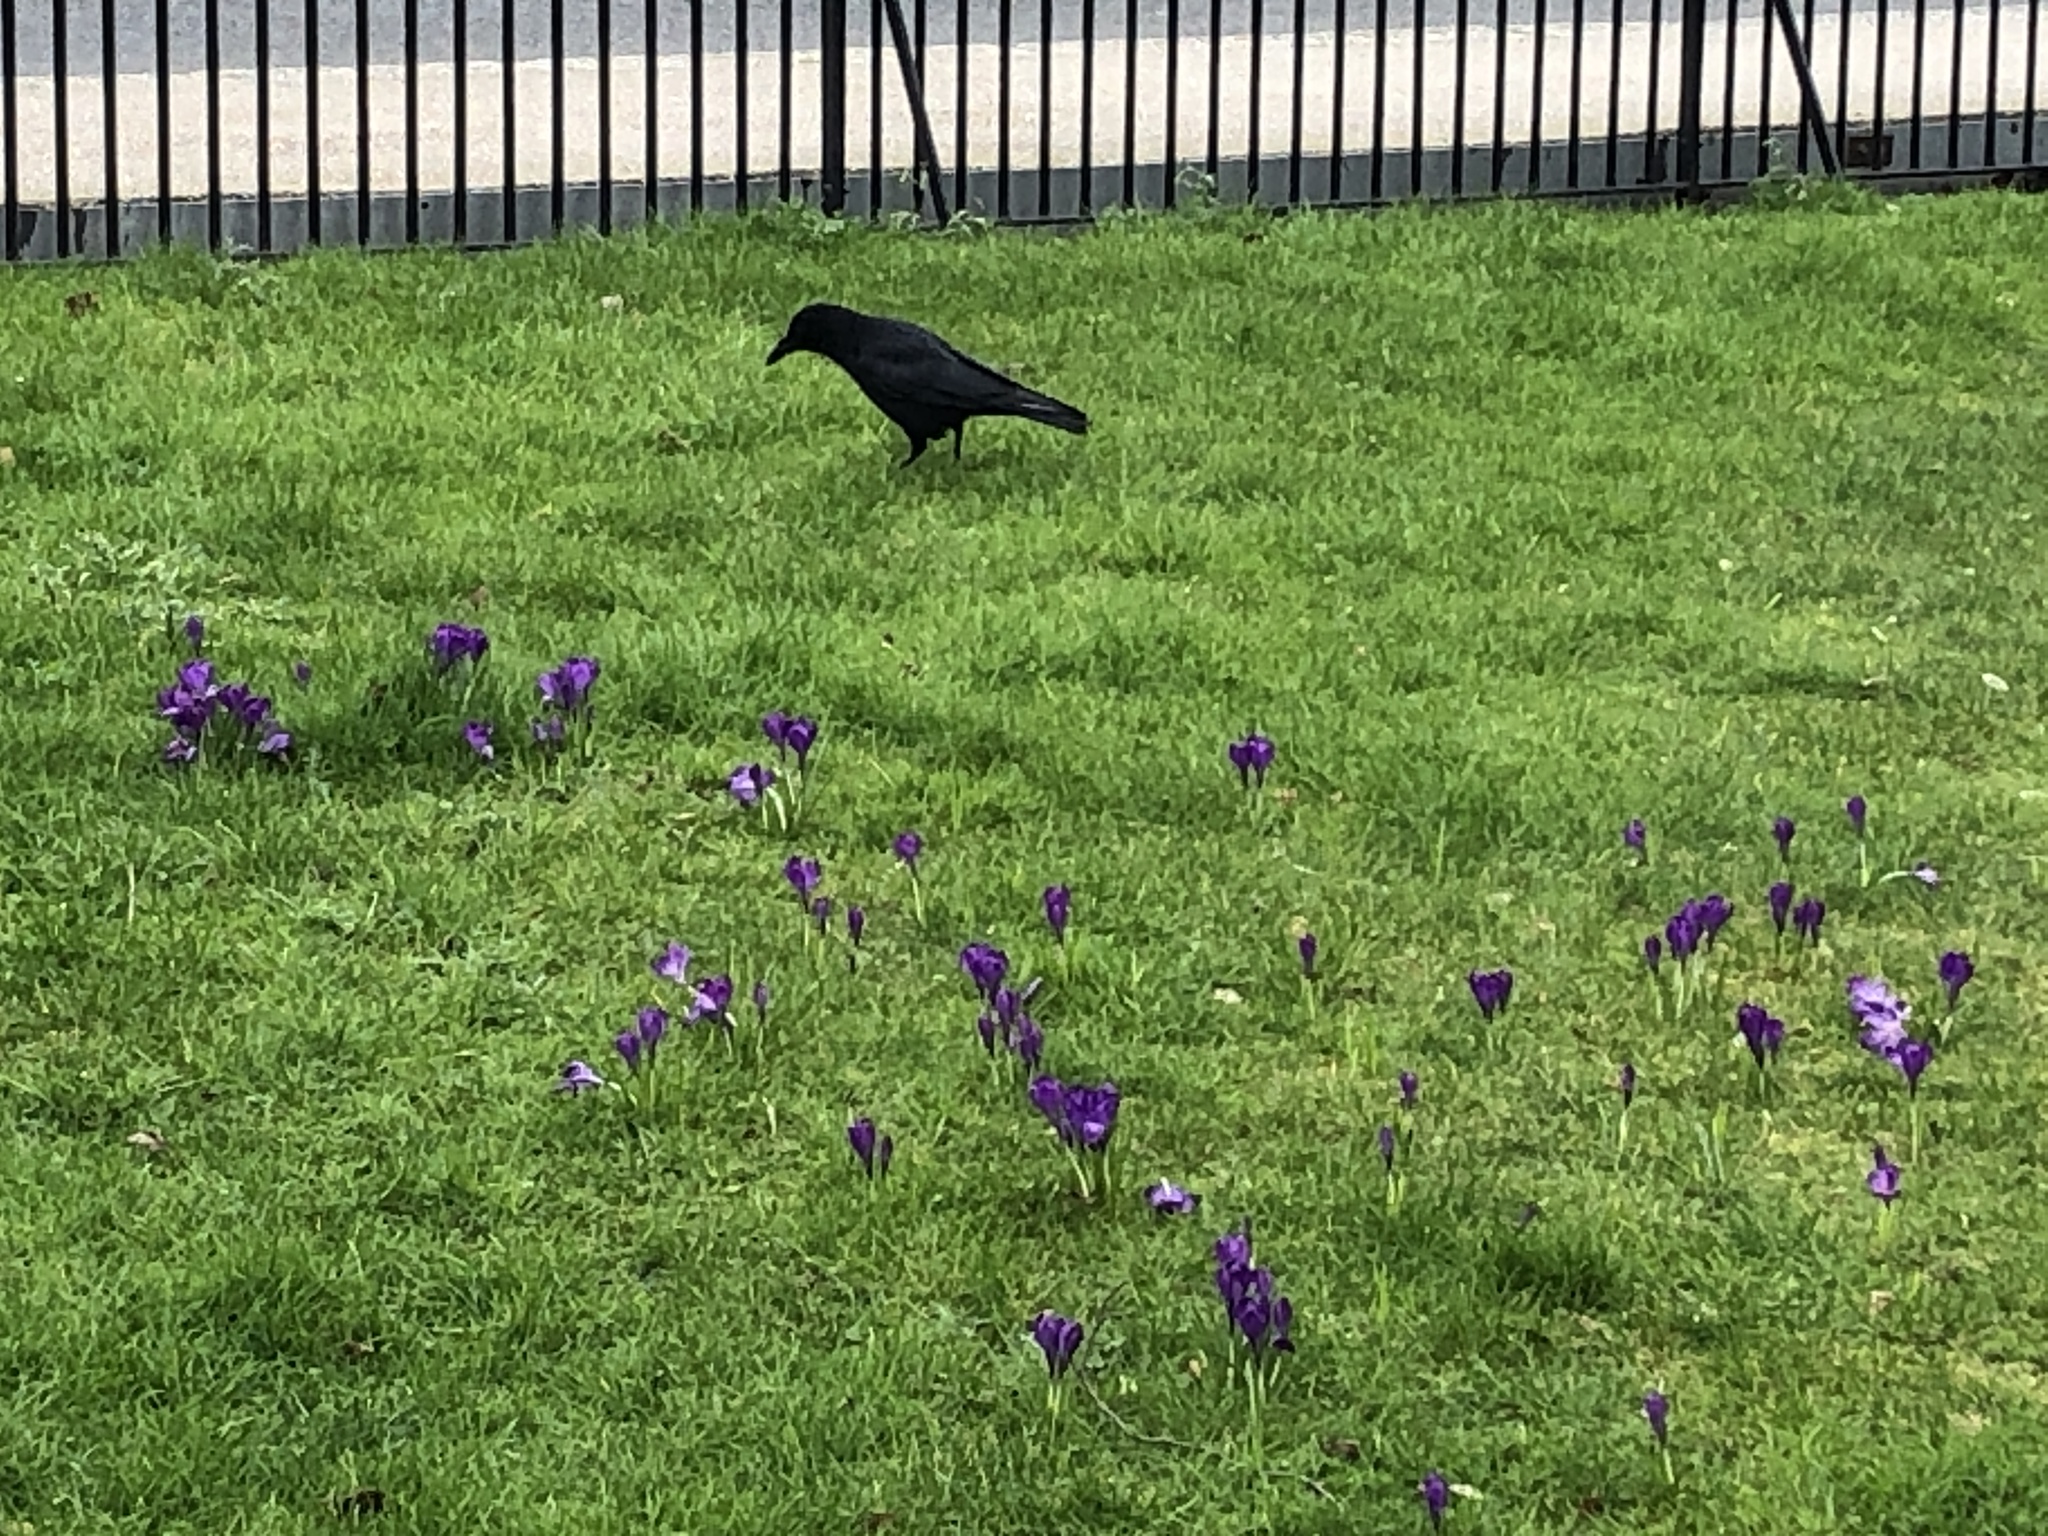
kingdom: Animalia
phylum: Chordata
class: Aves
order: Passeriformes
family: Corvidae
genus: Corvus
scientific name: Corvus corone
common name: Carrion crow
